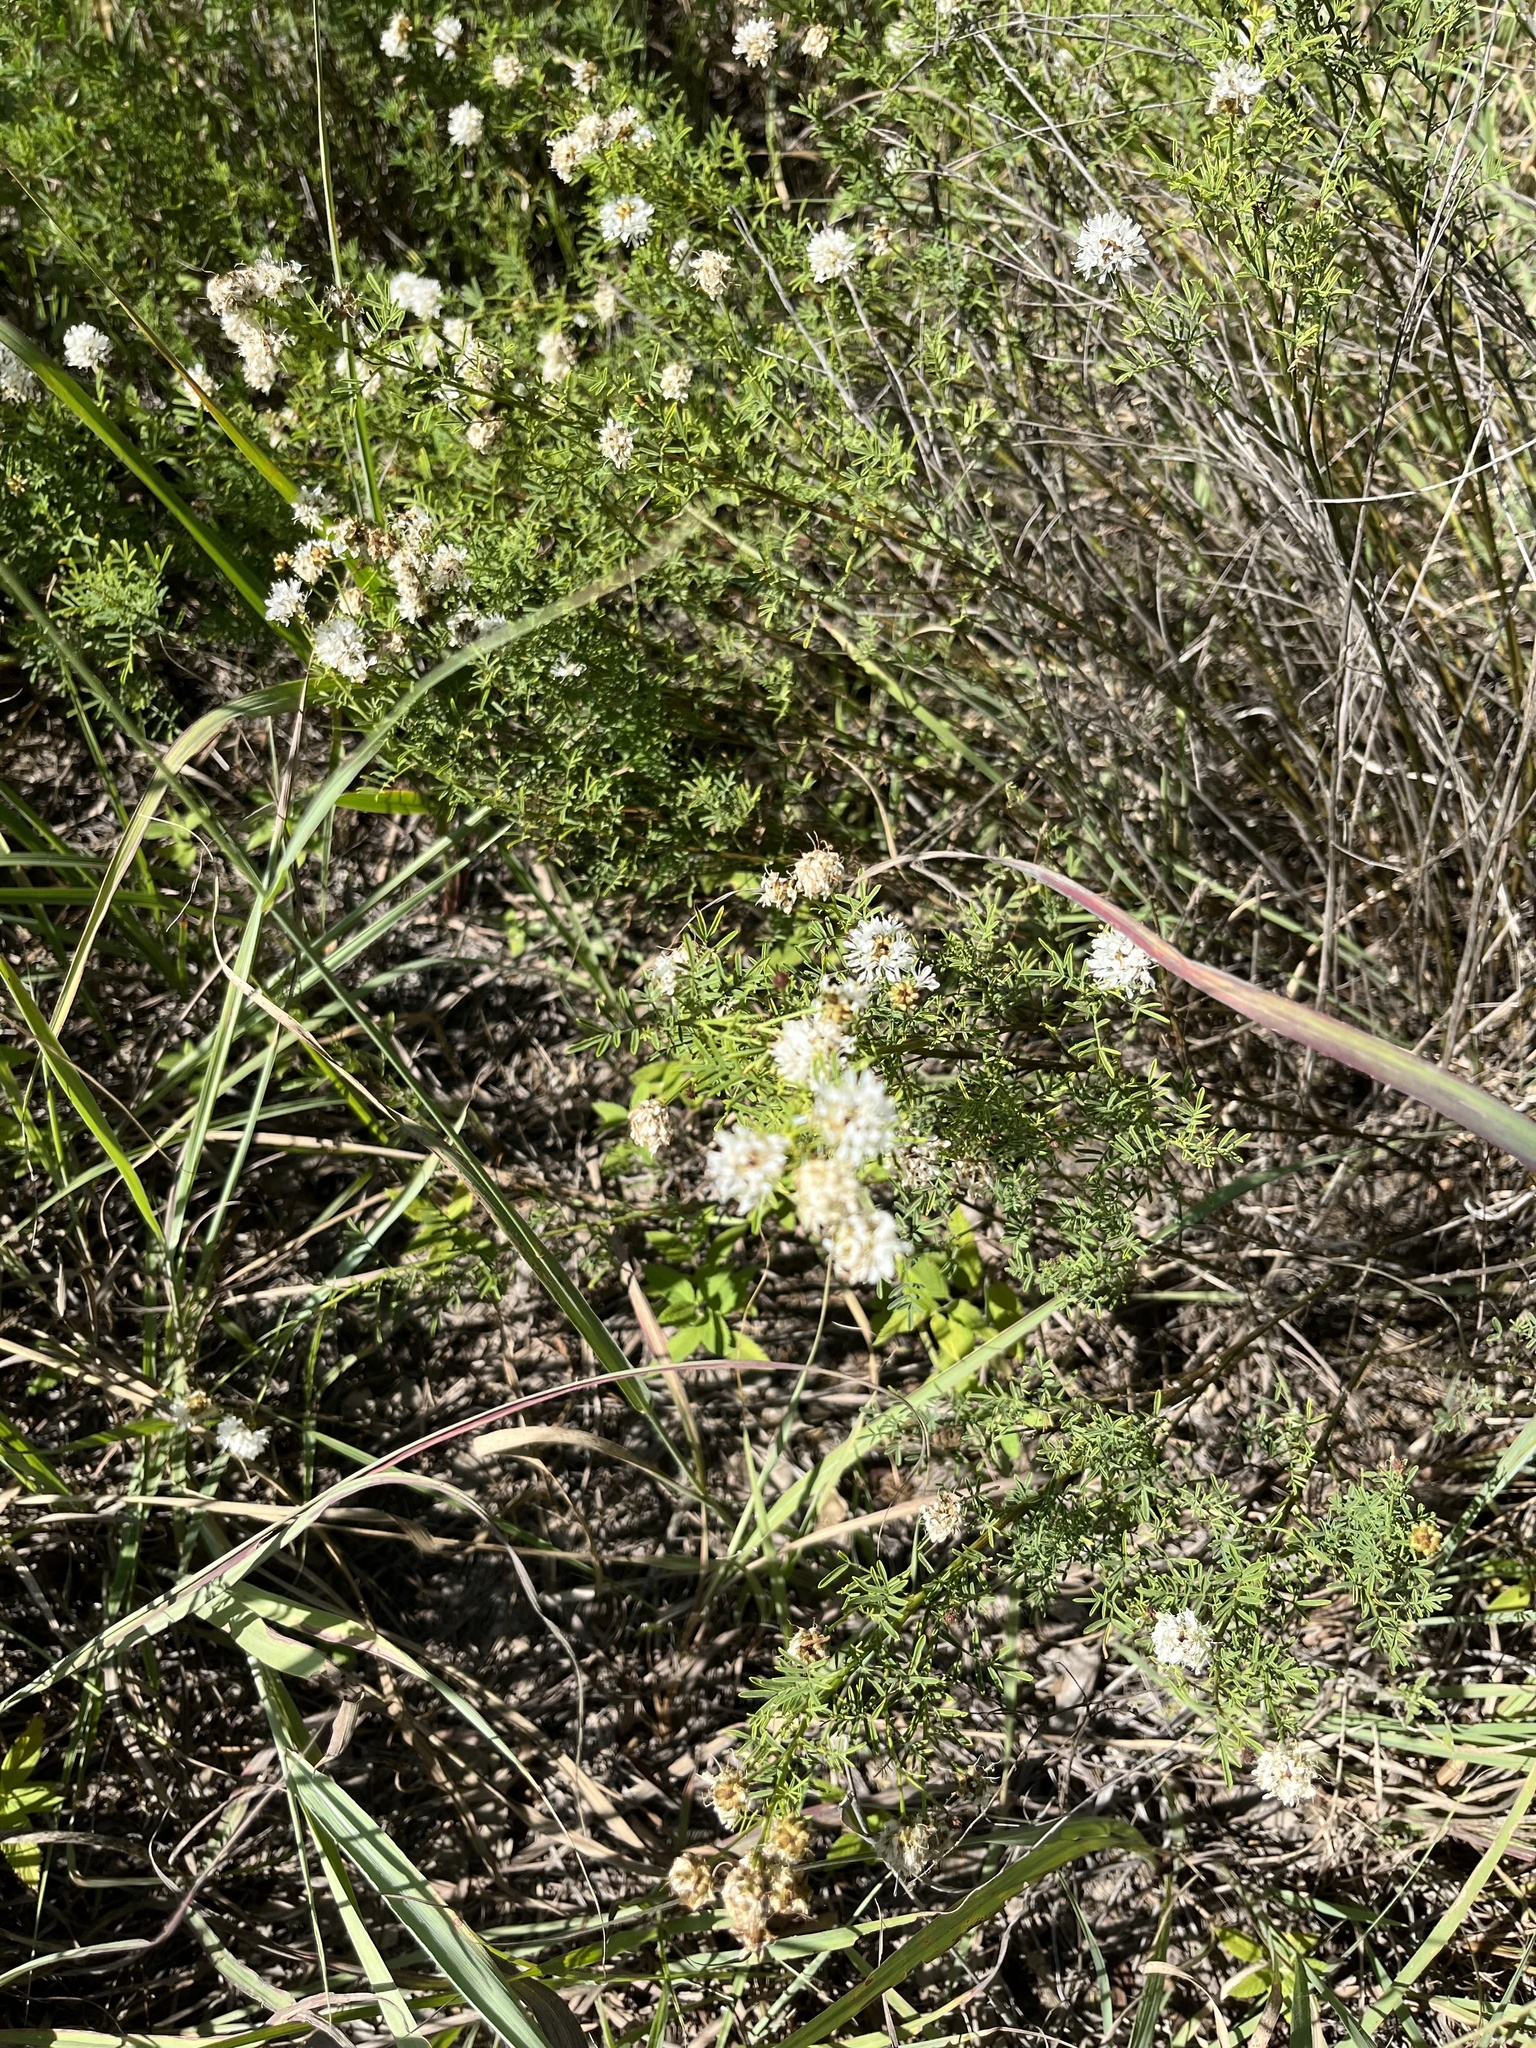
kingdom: Plantae
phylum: Tracheophyta
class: Magnoliopsida
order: Fabales
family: Fabaceae
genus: Dalea
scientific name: Dalea multiflora
